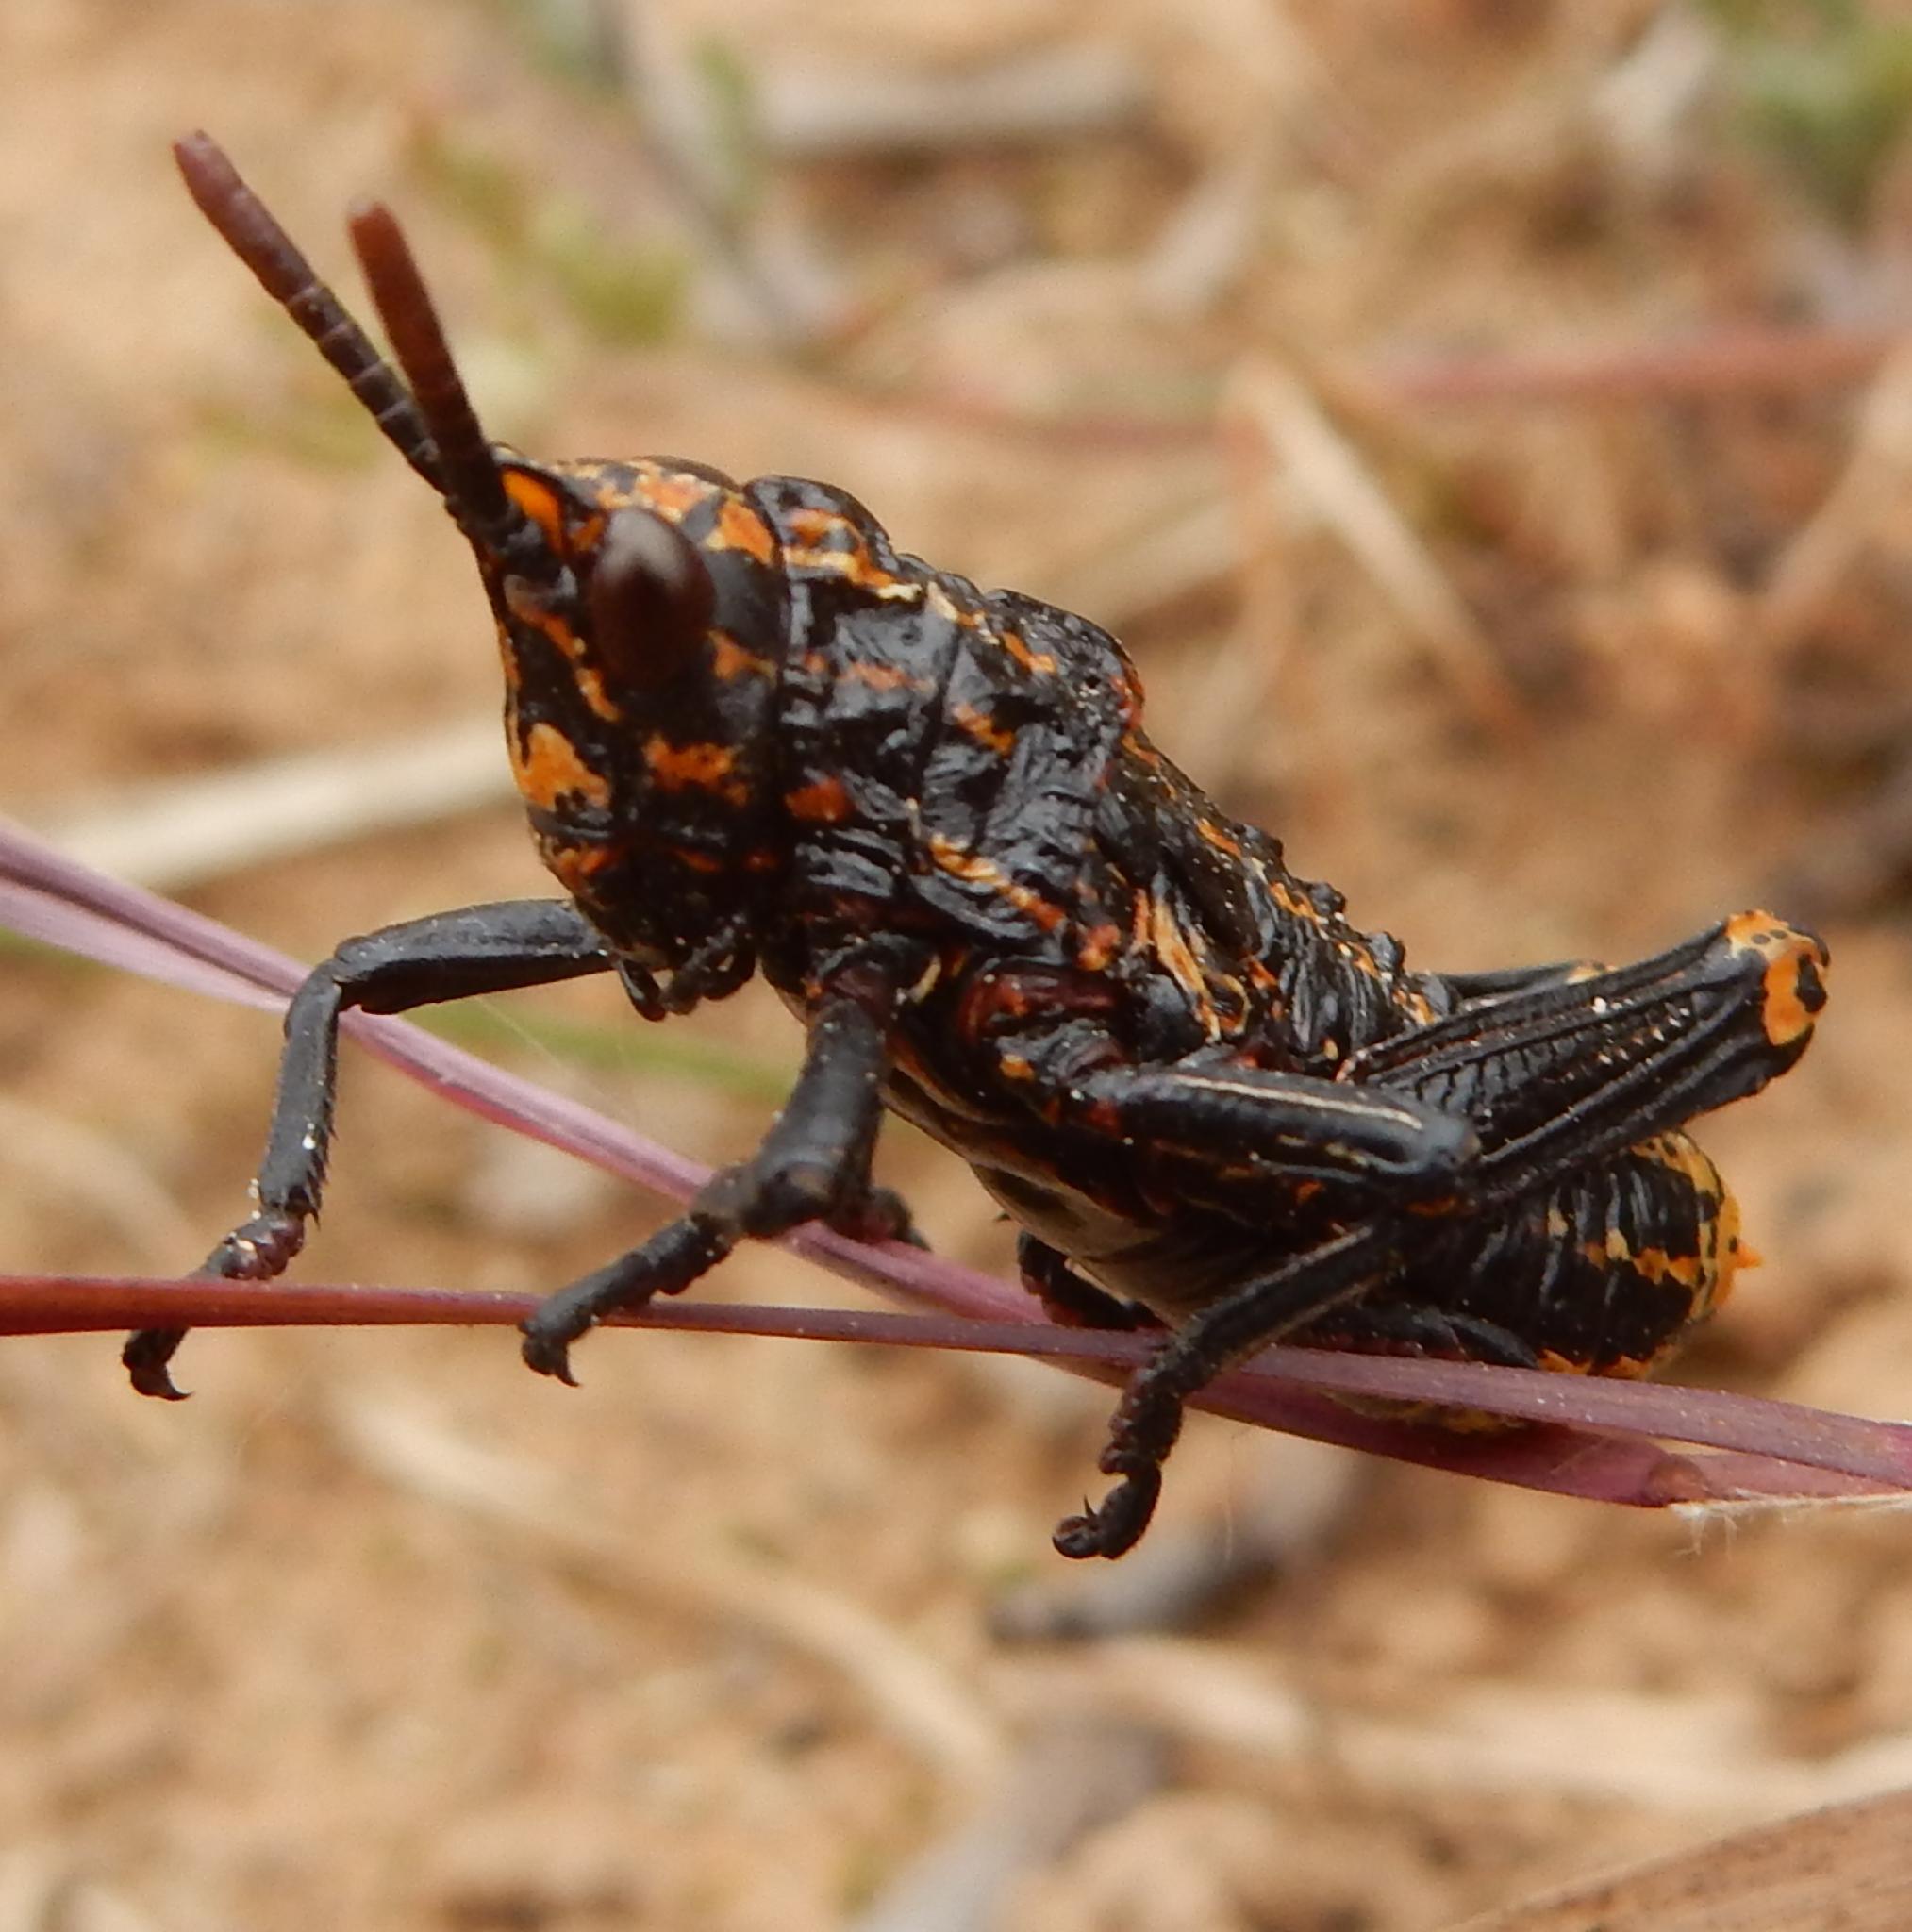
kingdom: Animalia
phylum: Arthropoda
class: Insecta
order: Orthoptera
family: Pyrgomorphidae
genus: Dictyophorus
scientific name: Dictyophorus spumans
